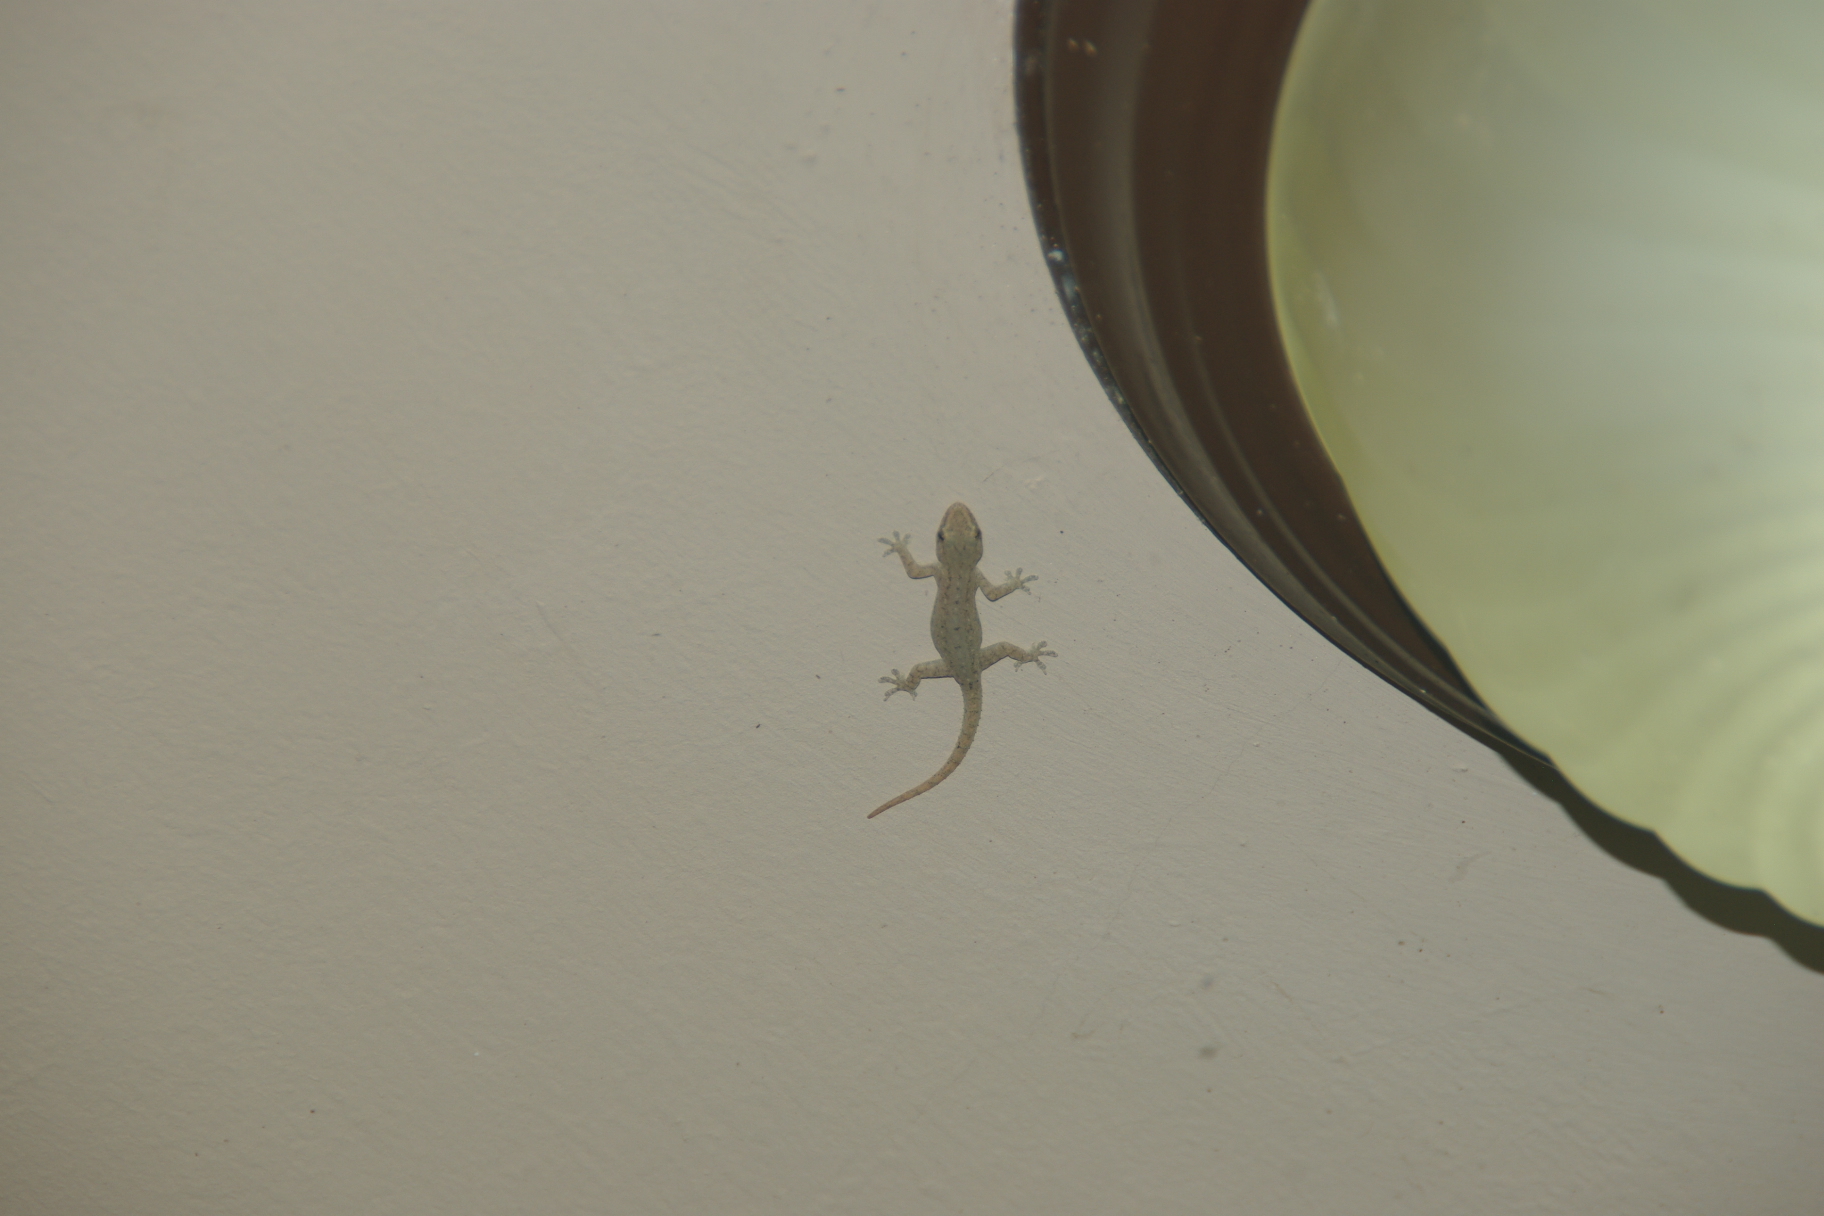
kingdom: Animalia
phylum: Chordata
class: Squamata
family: Gekkonidae
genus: Hemidactylus
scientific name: Hemidactylus frenatus
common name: Common house gecko
